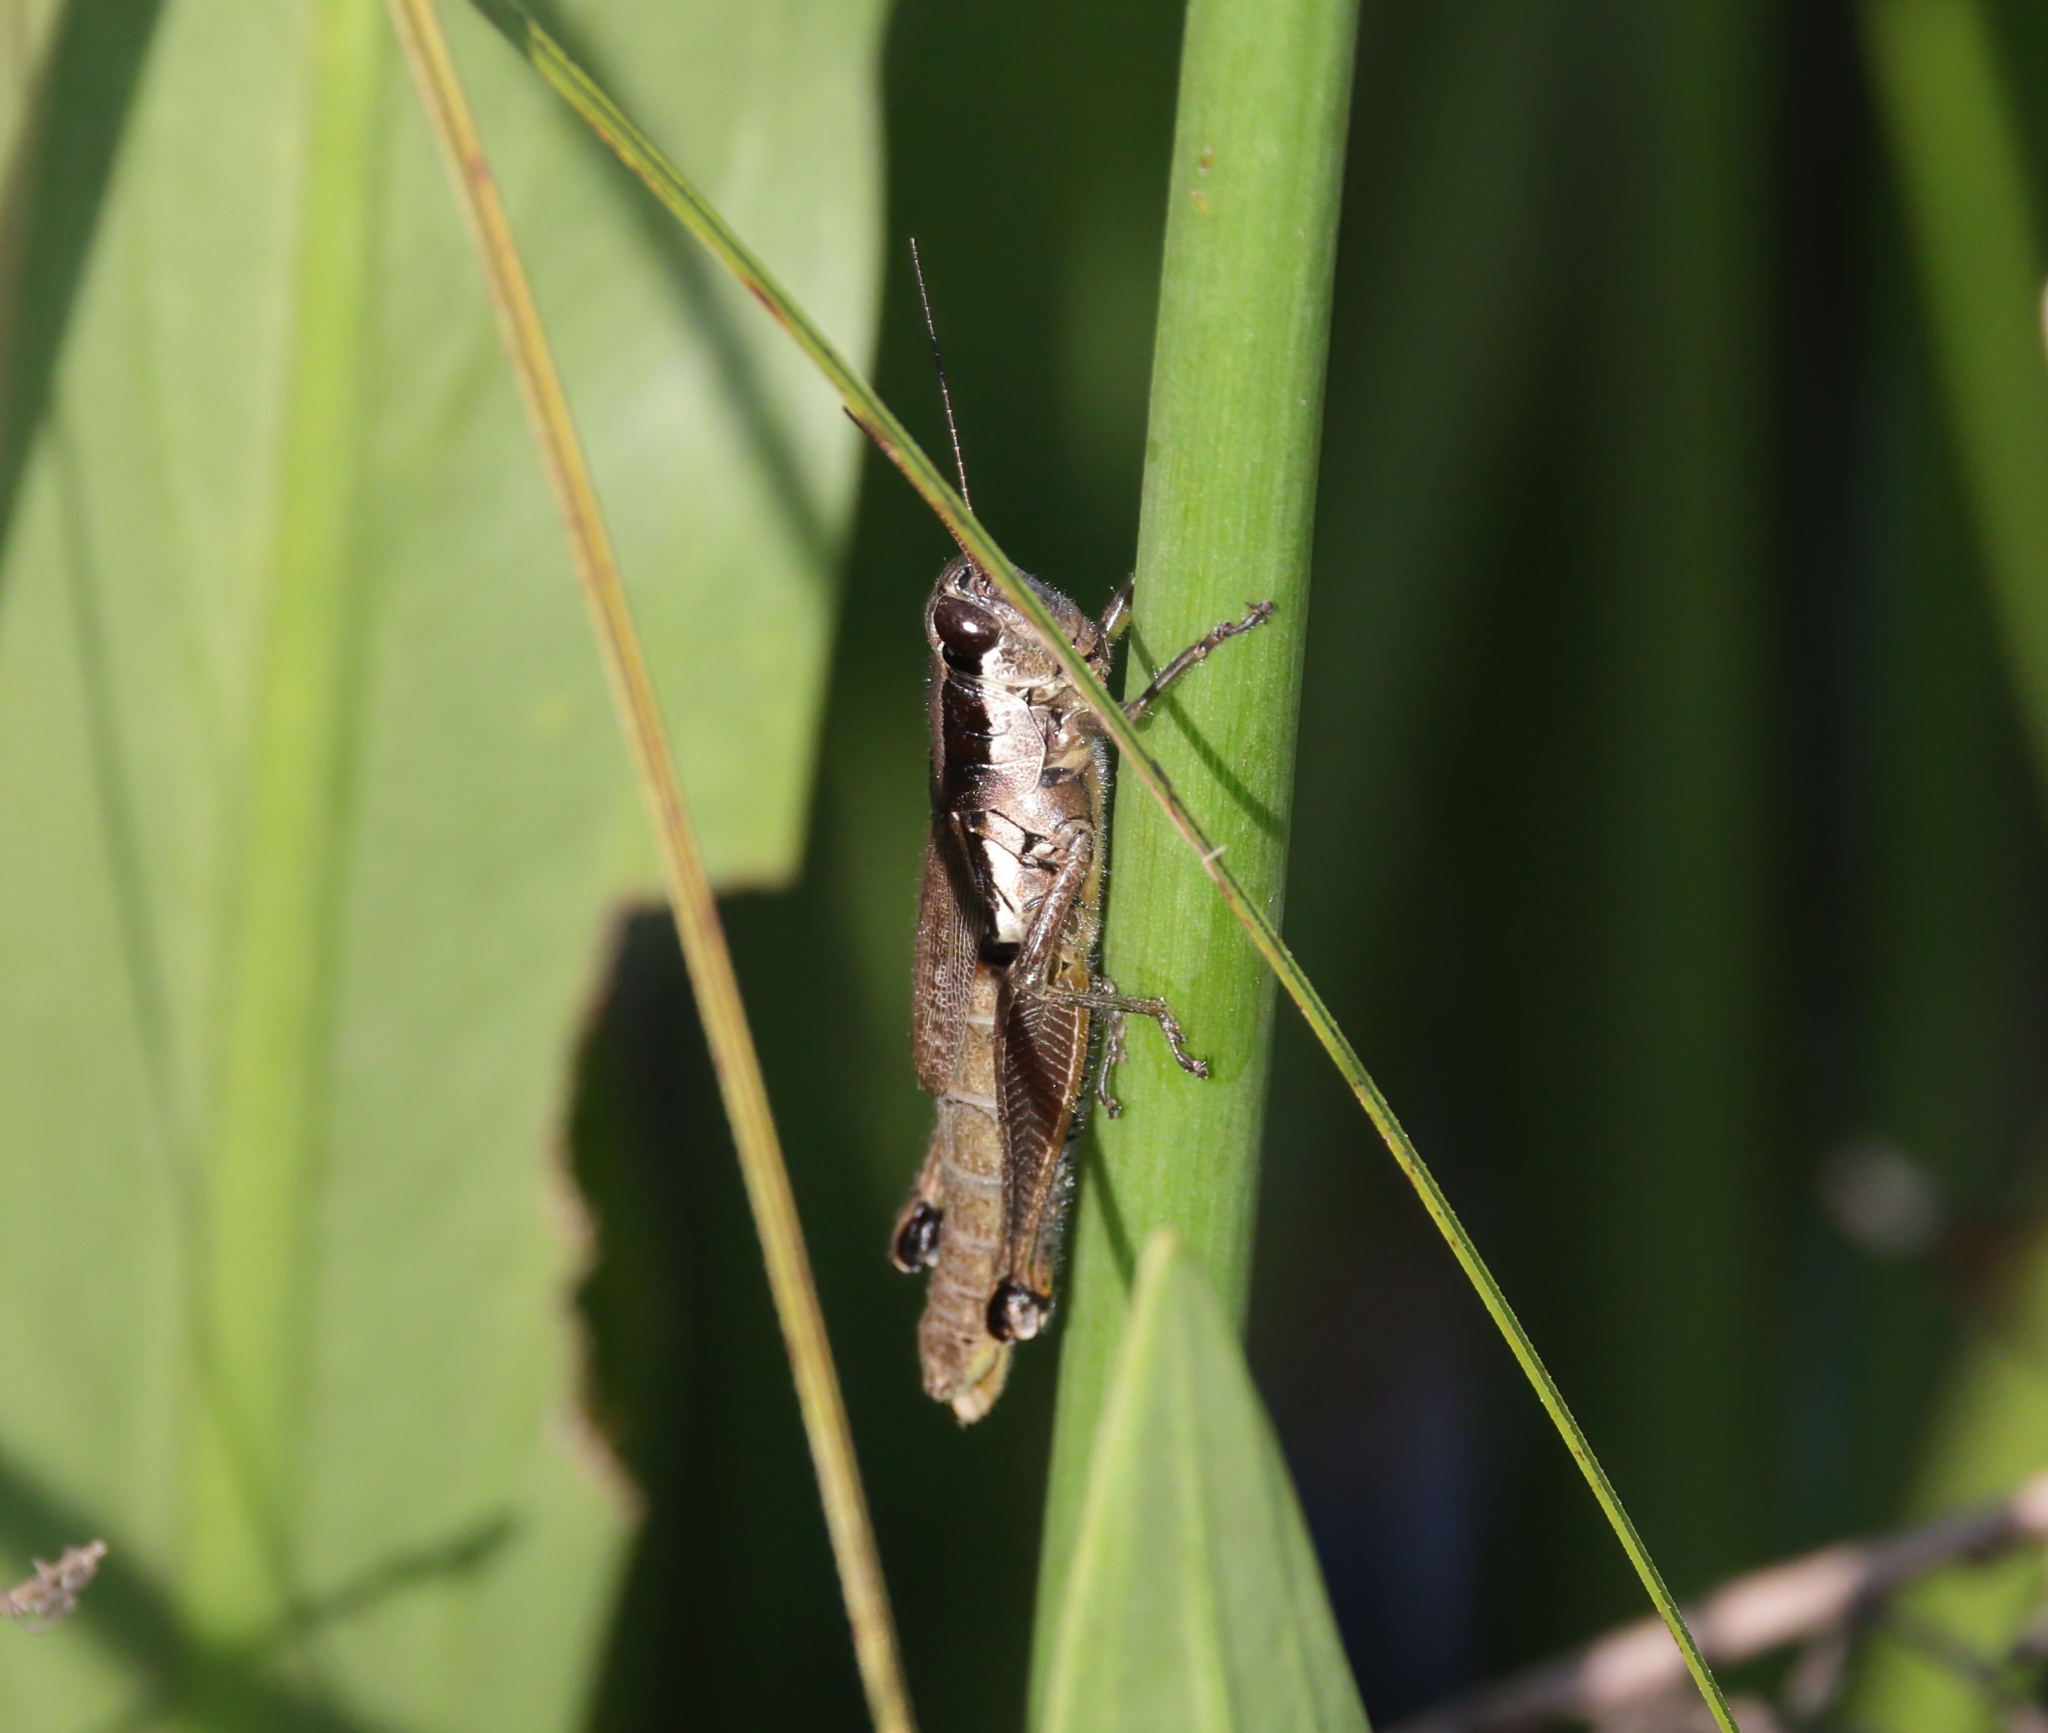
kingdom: Animalia
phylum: Arthropoda
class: Insecta
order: Orthoptera
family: Acrididae
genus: Paroxya
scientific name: Paroxya clavuligera
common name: Olive-green swamp grasshopper
